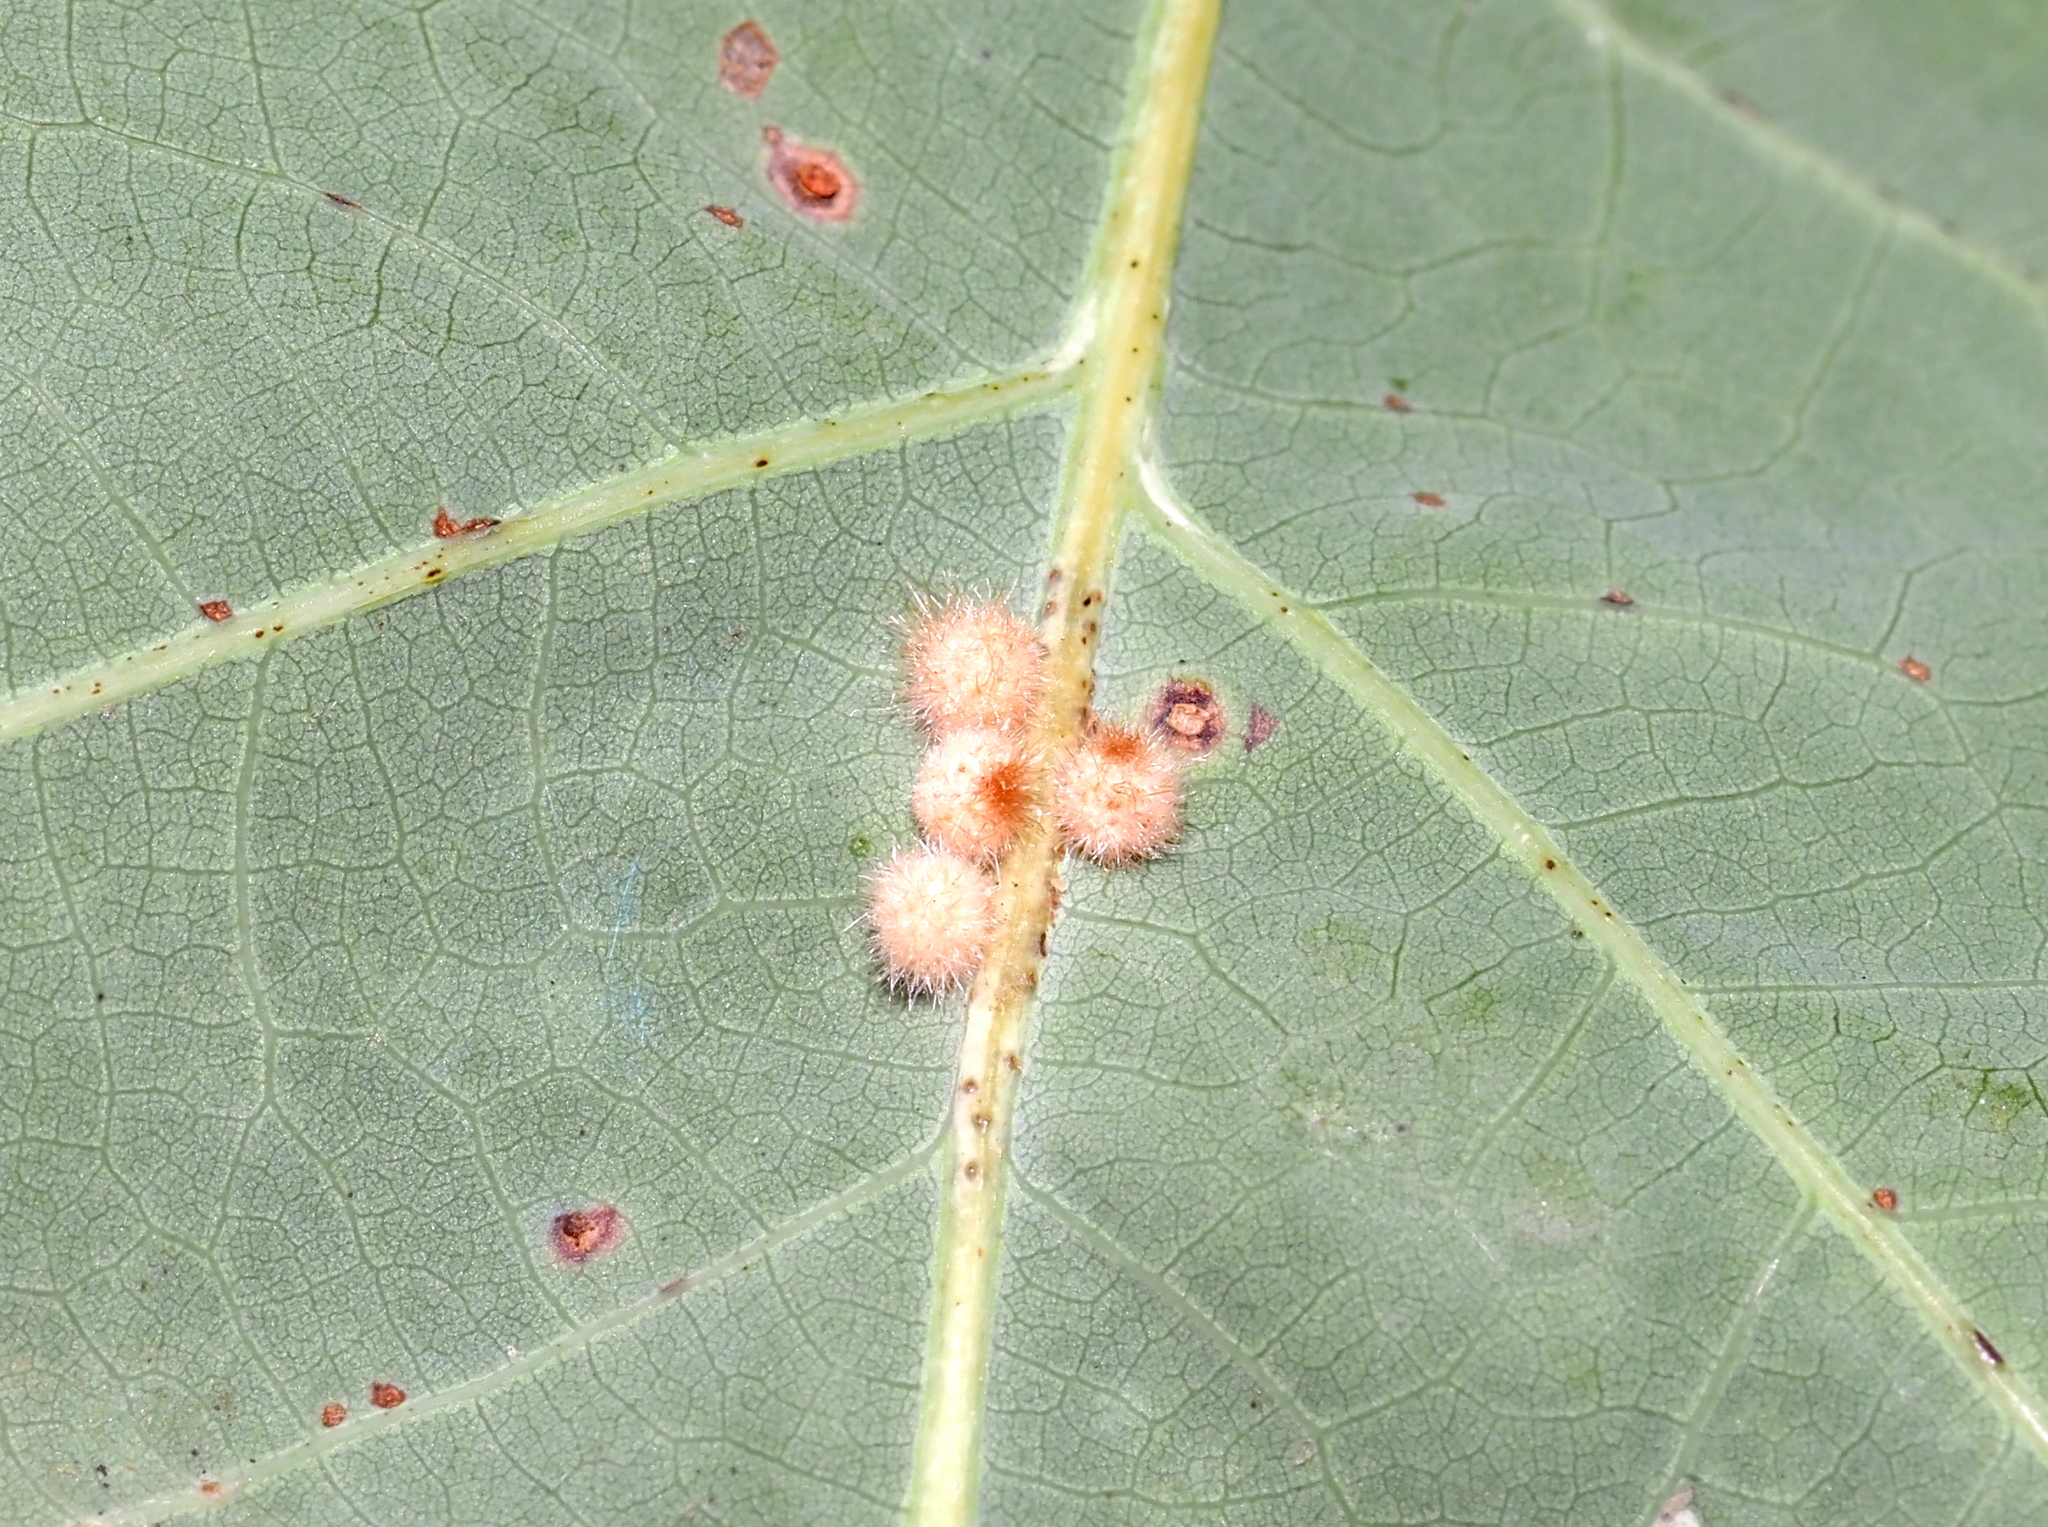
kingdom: Animalia
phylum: Arthropoda
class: Insecta
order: Hymenoptera
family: Cynipidae
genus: Andricus
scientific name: Andricus
